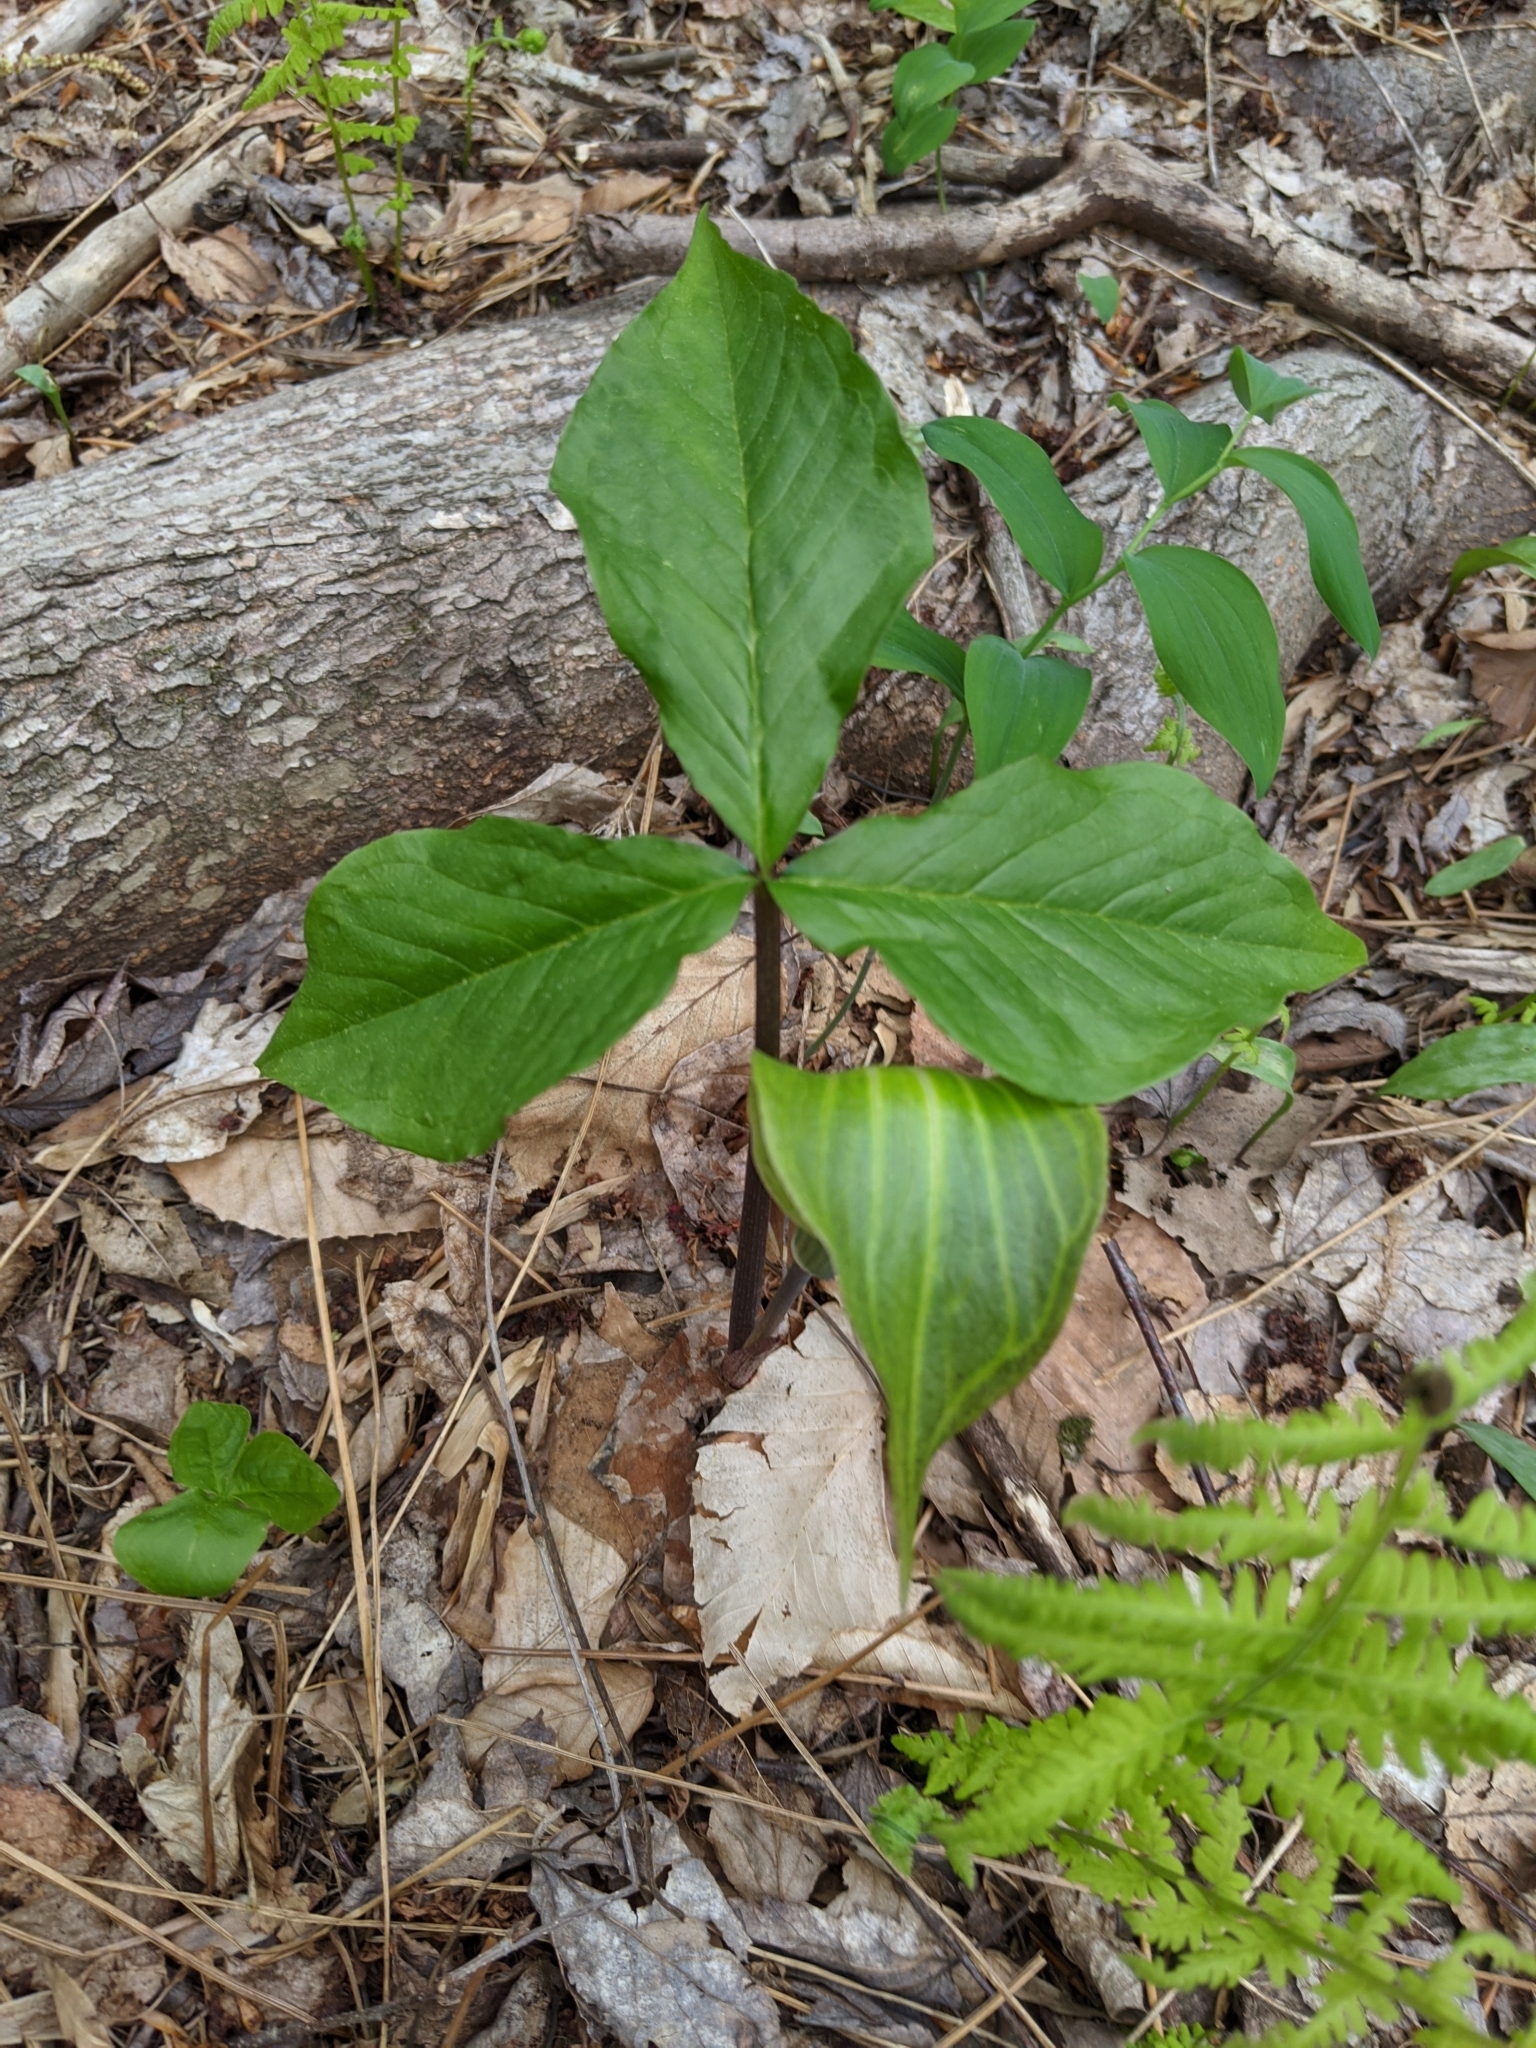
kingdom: Plantae
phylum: Tracheophyta
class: Liliopsida
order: Alismatales
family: Araceae
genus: Arisaema
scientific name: Arisaema triphyllum
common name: Jack-in-the-pulpit
